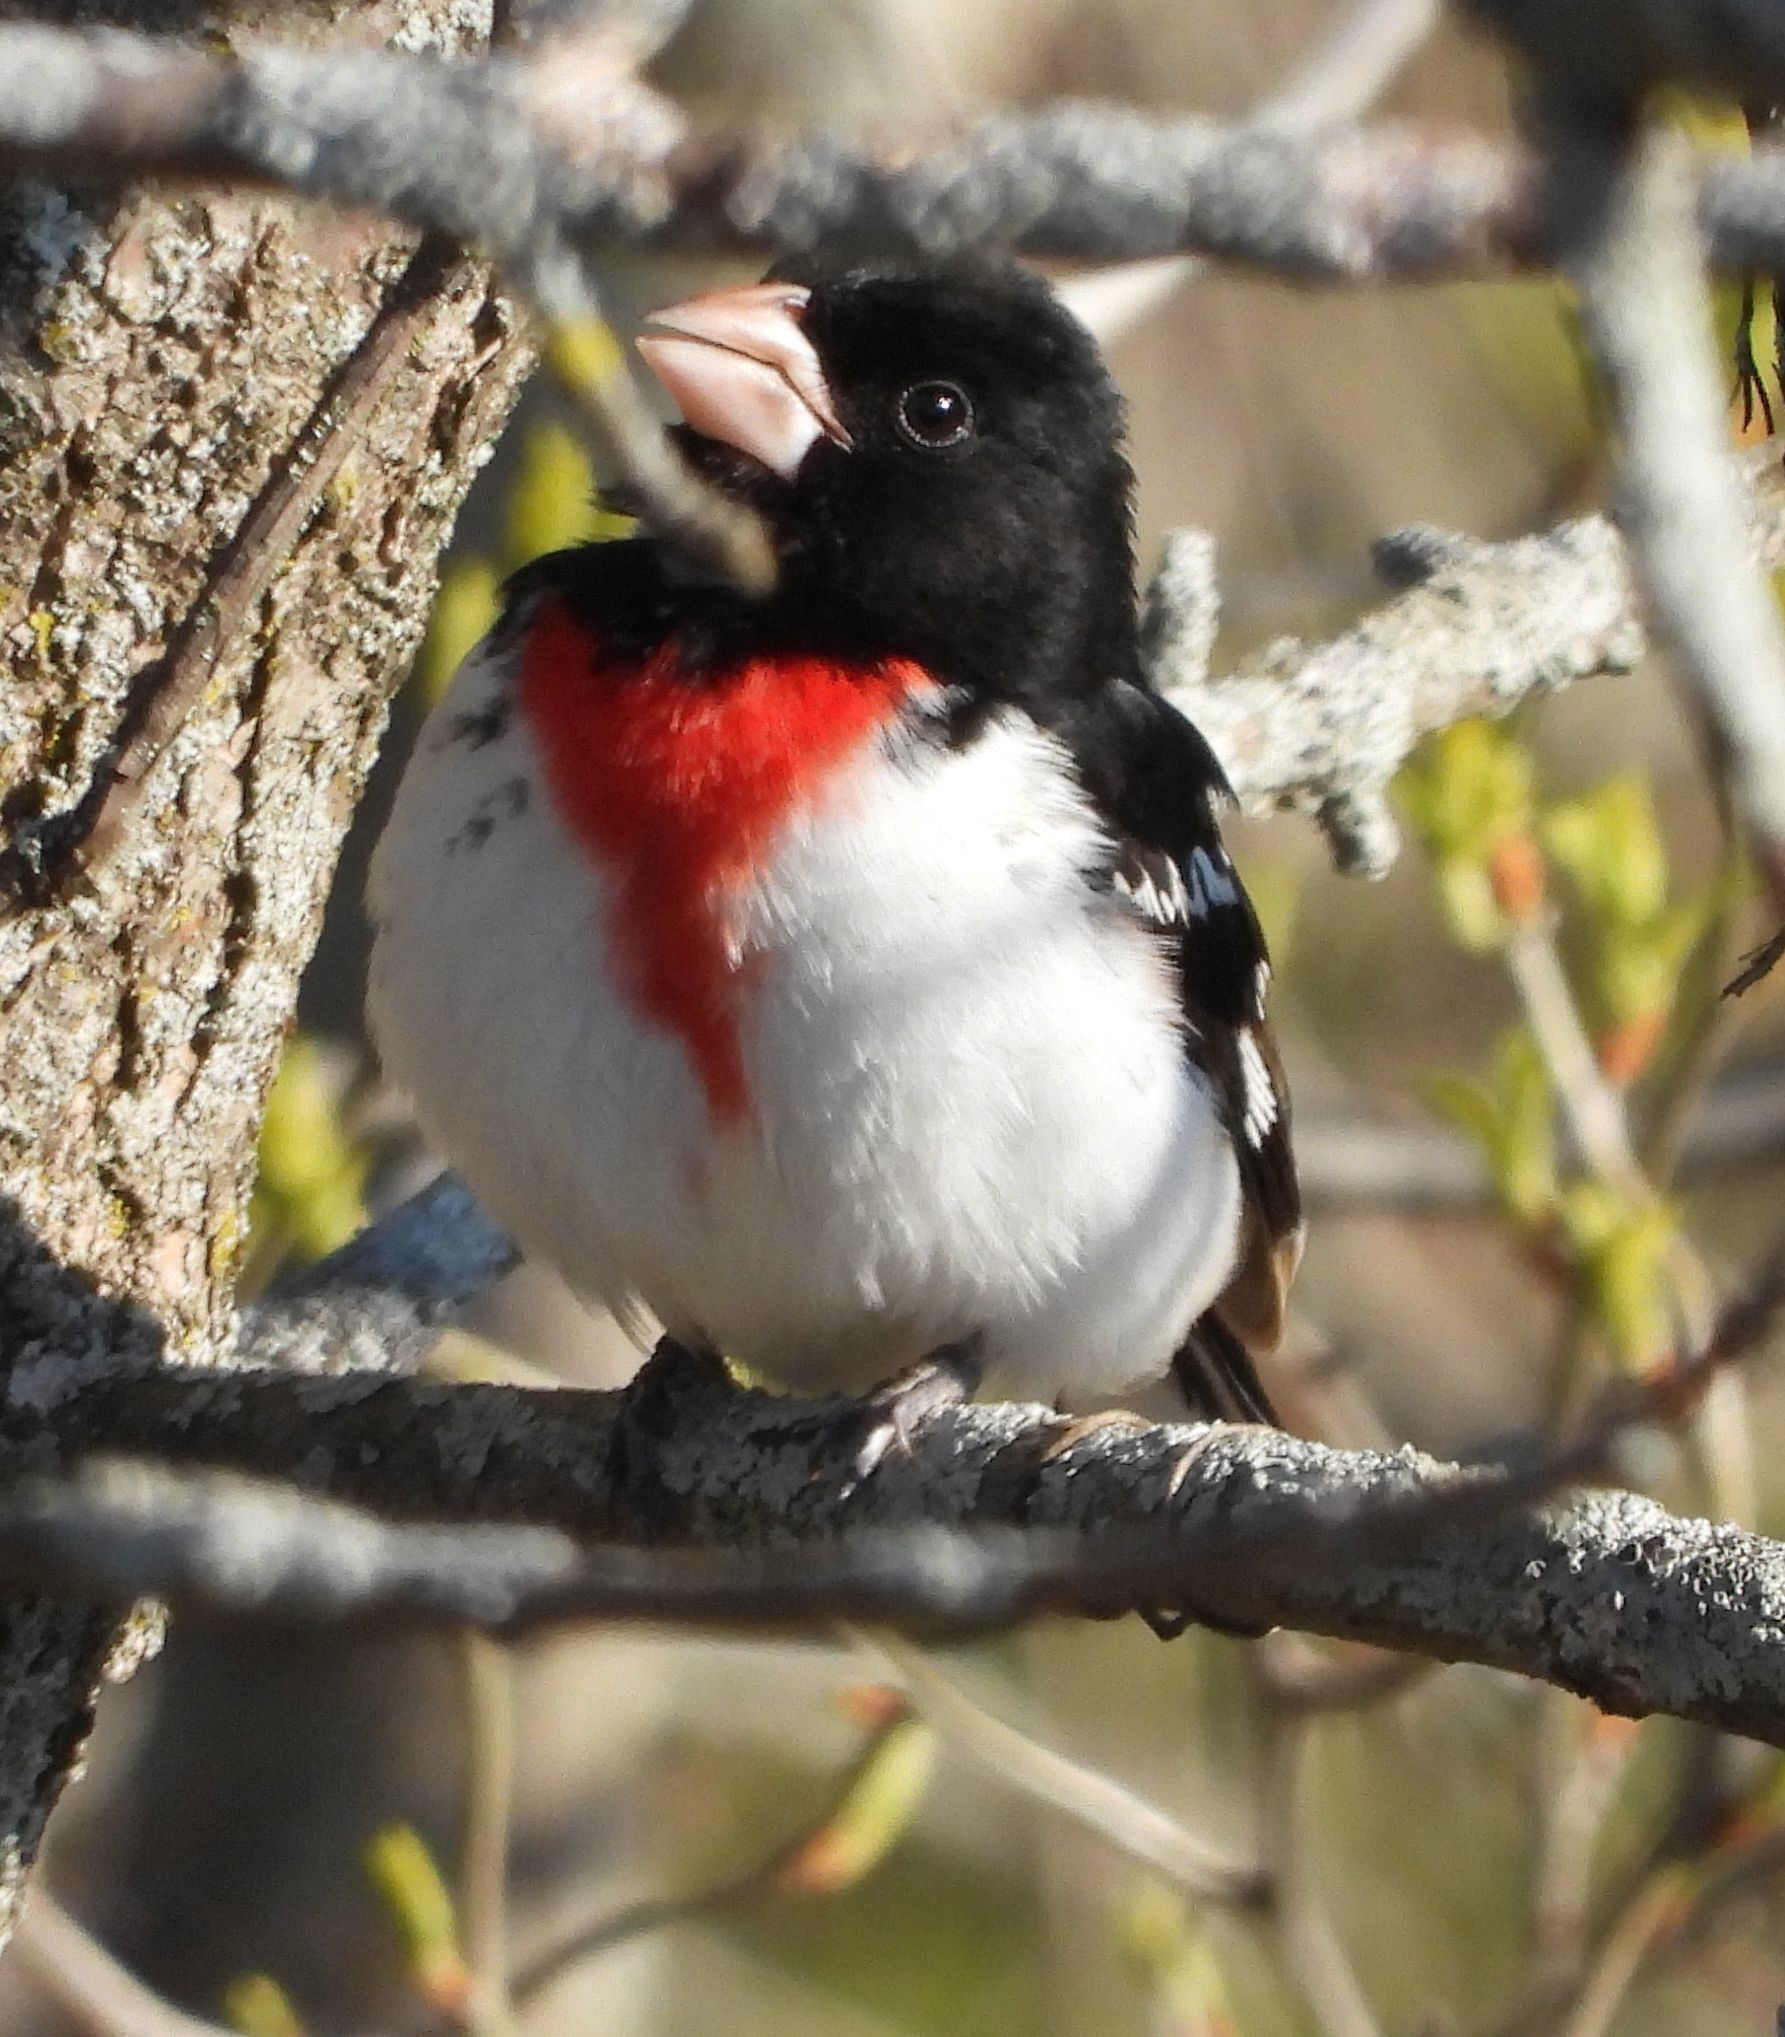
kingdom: Animalia
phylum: Chordata
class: Aves
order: Passeriformes
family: Cardinalidae
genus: Pheucticus
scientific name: Pheucticus ludovicianus
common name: Rose-breasted grosbeak
